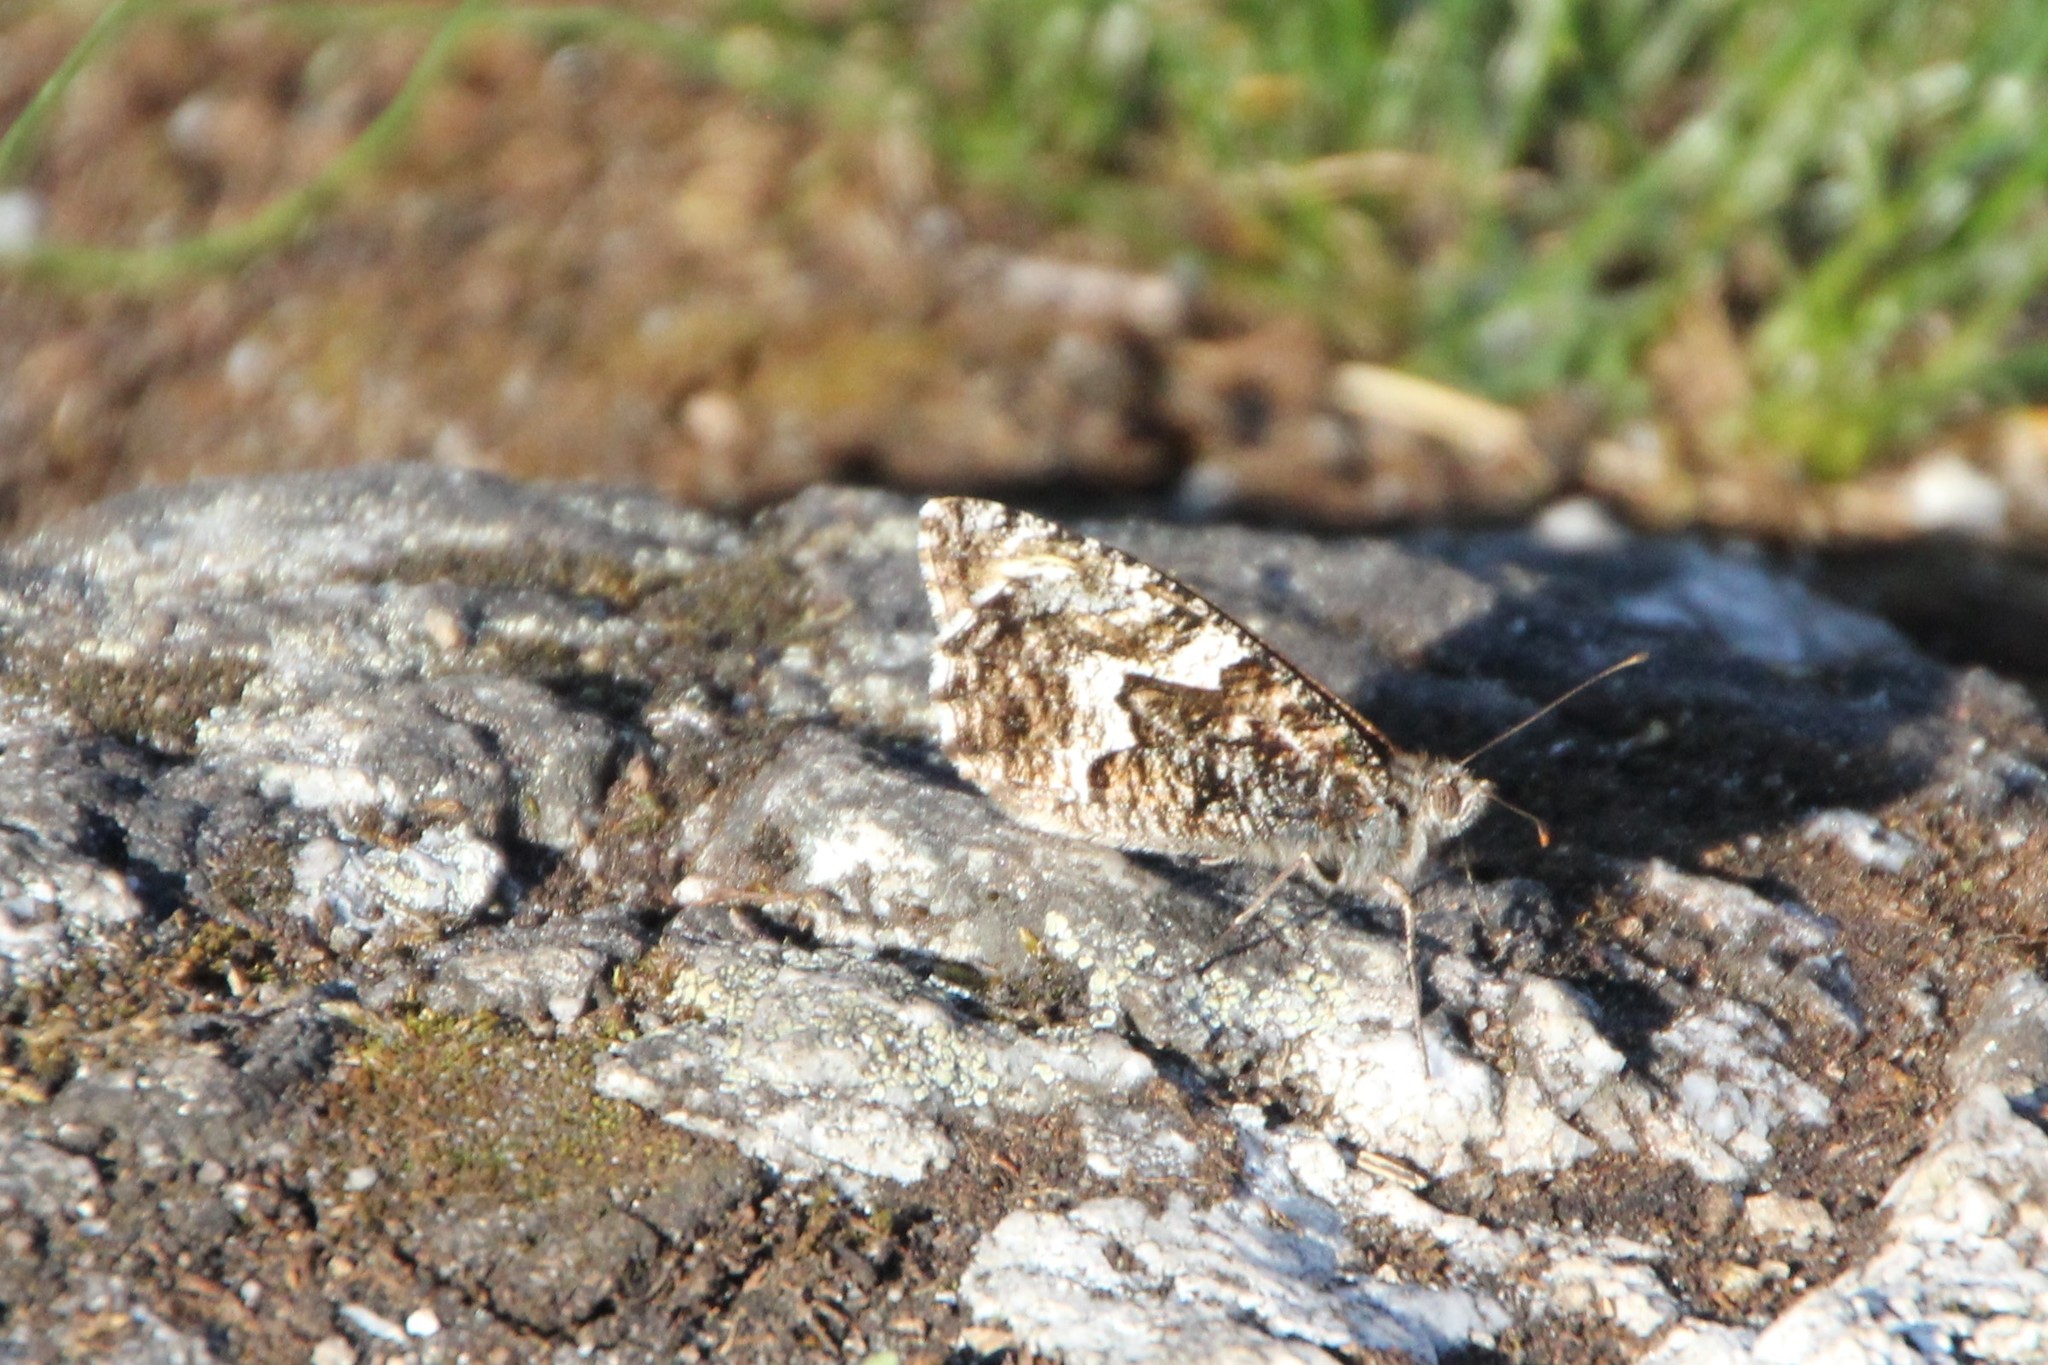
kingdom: Animalia
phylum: Arthropoda
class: Insecta
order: Lepidoptera
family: Nymphalidae
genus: Hipparchia
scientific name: Hipparchia semele
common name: Grayling
